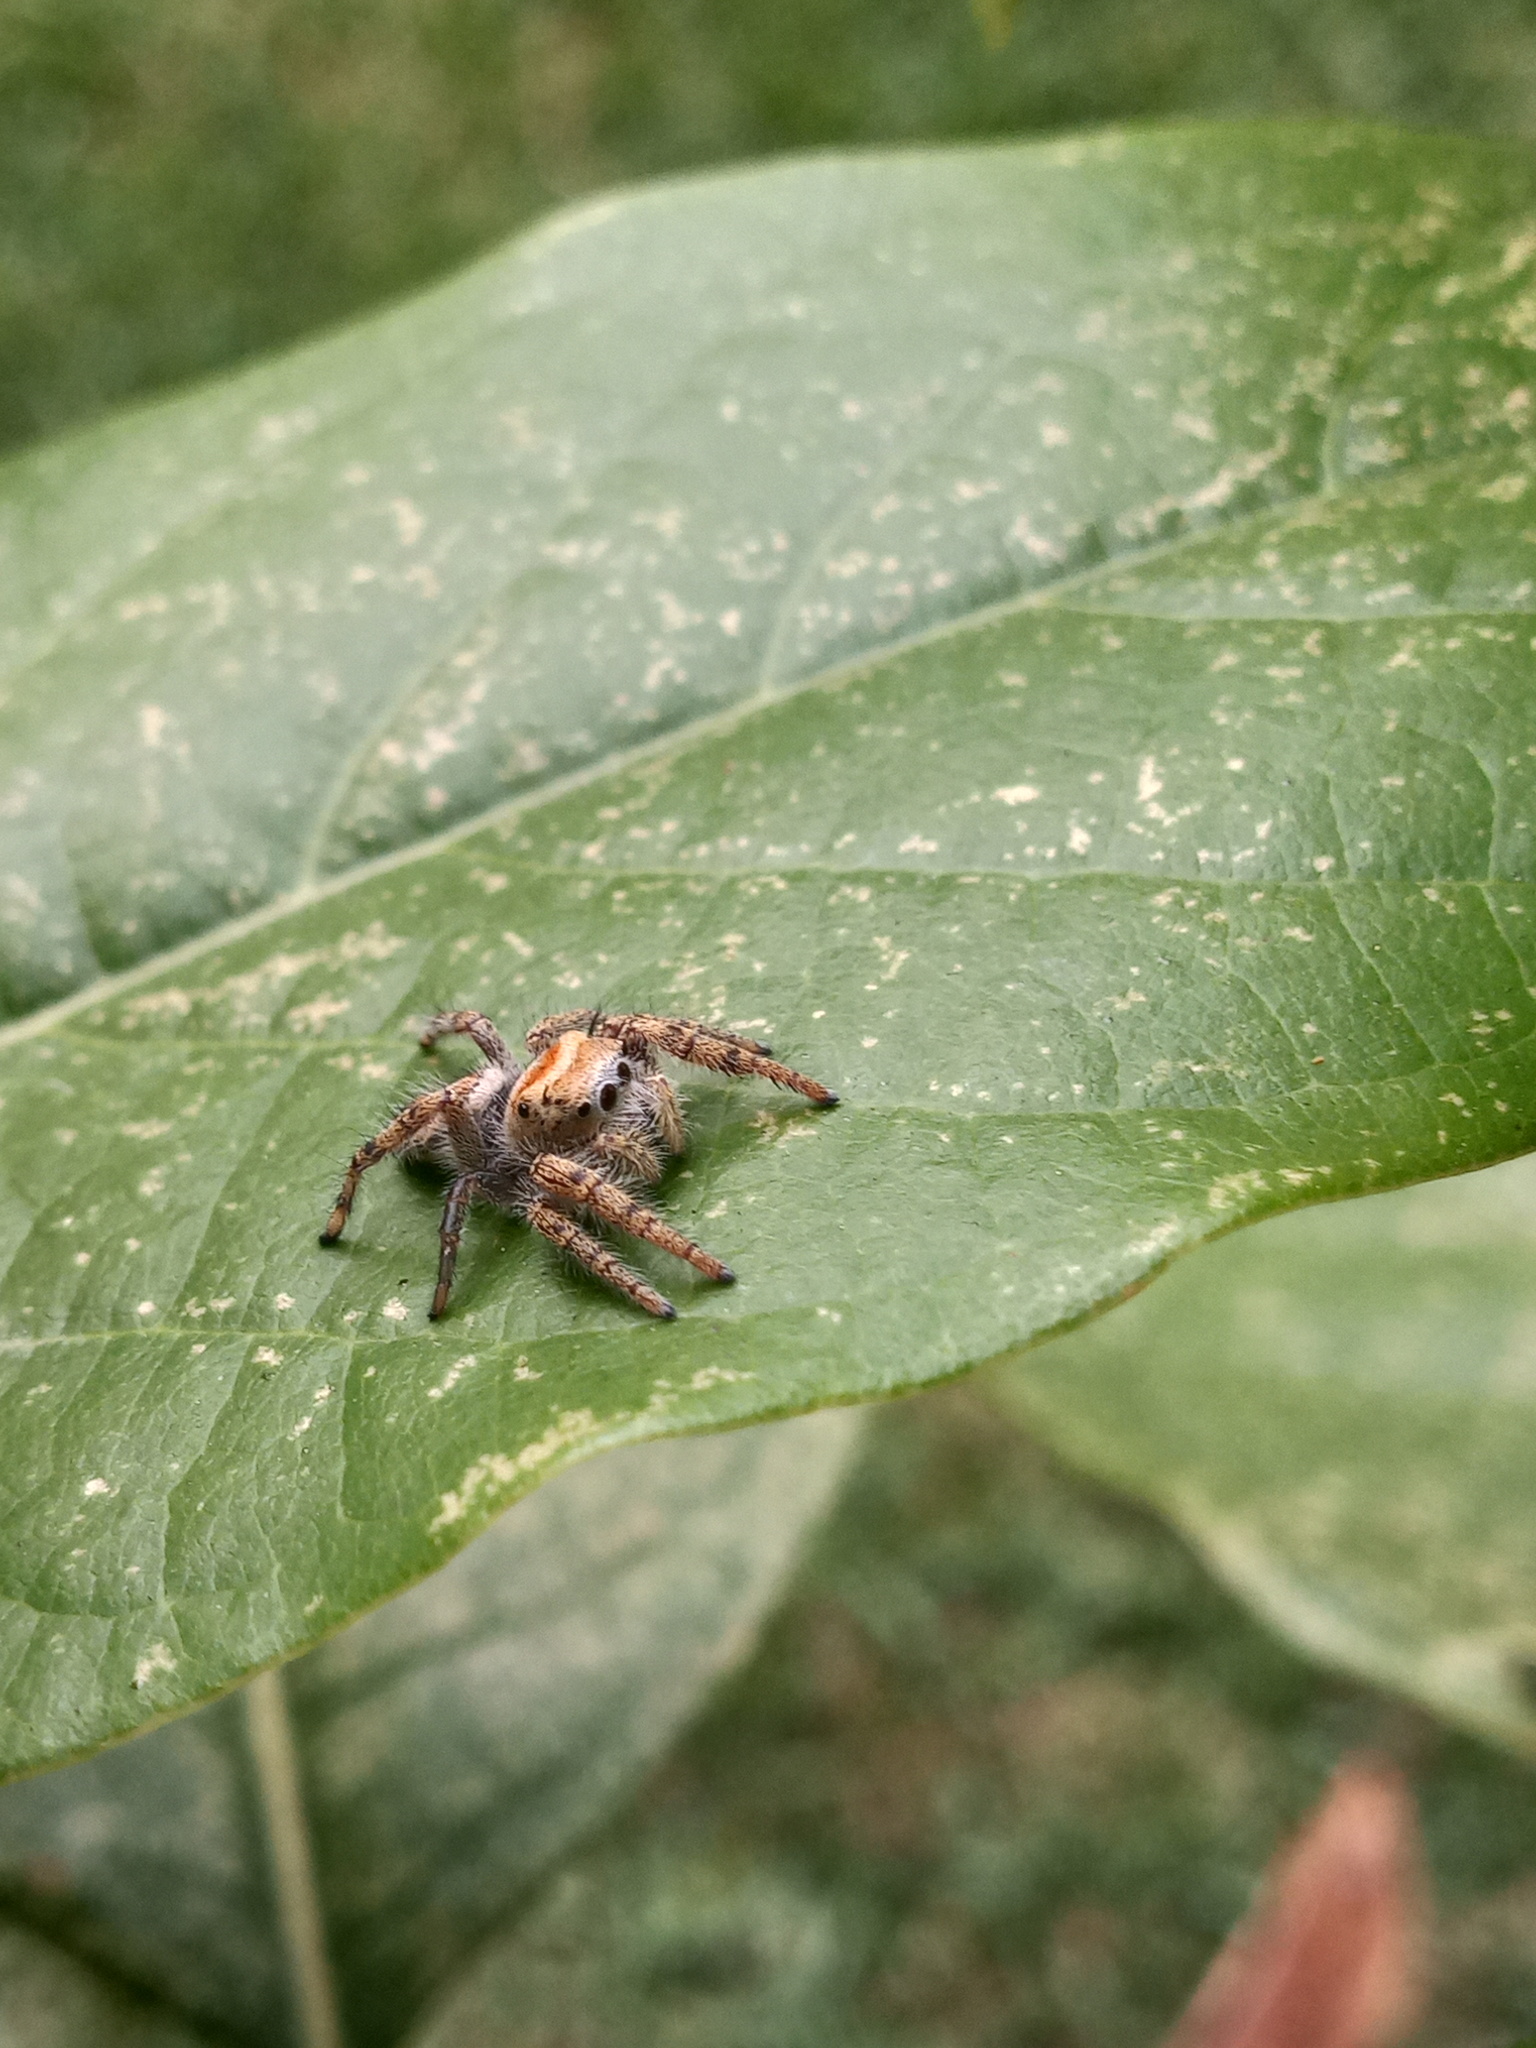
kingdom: Animalia
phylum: Arthropoda
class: Arachnida
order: Araneae
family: Salticidae
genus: Phidippus
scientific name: Phidippus arizonensis
